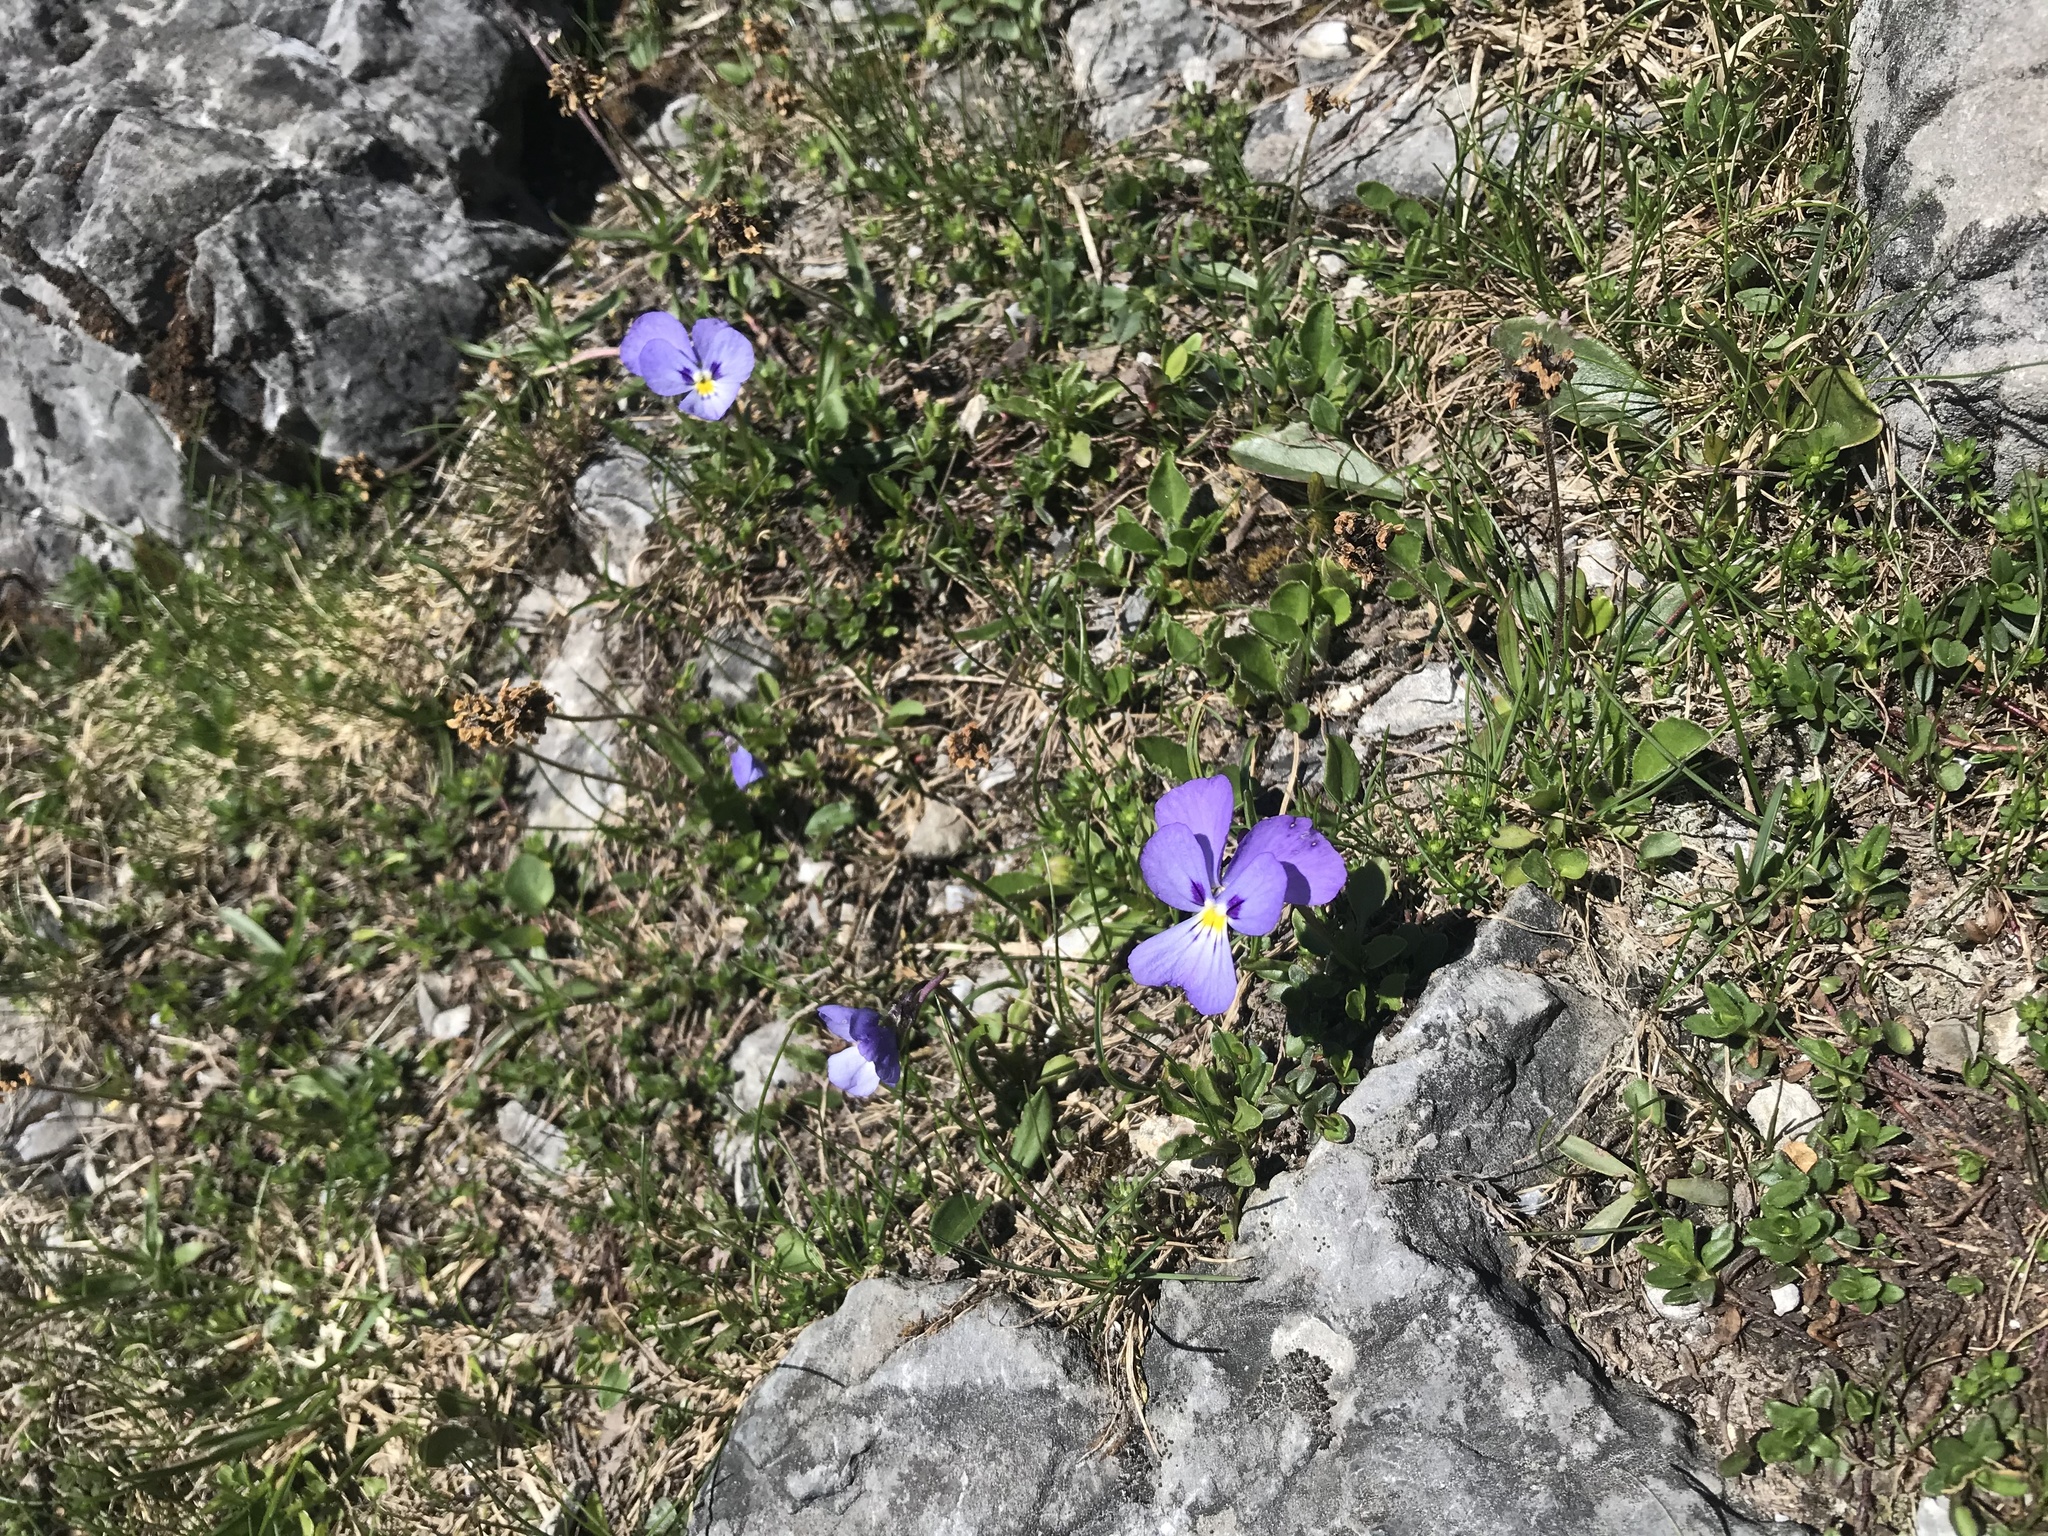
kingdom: Plantae
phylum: Tracheophyta
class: Magnoliopsida
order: Malpighiales
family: Violaceae
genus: Viola
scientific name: Viola calcarata
